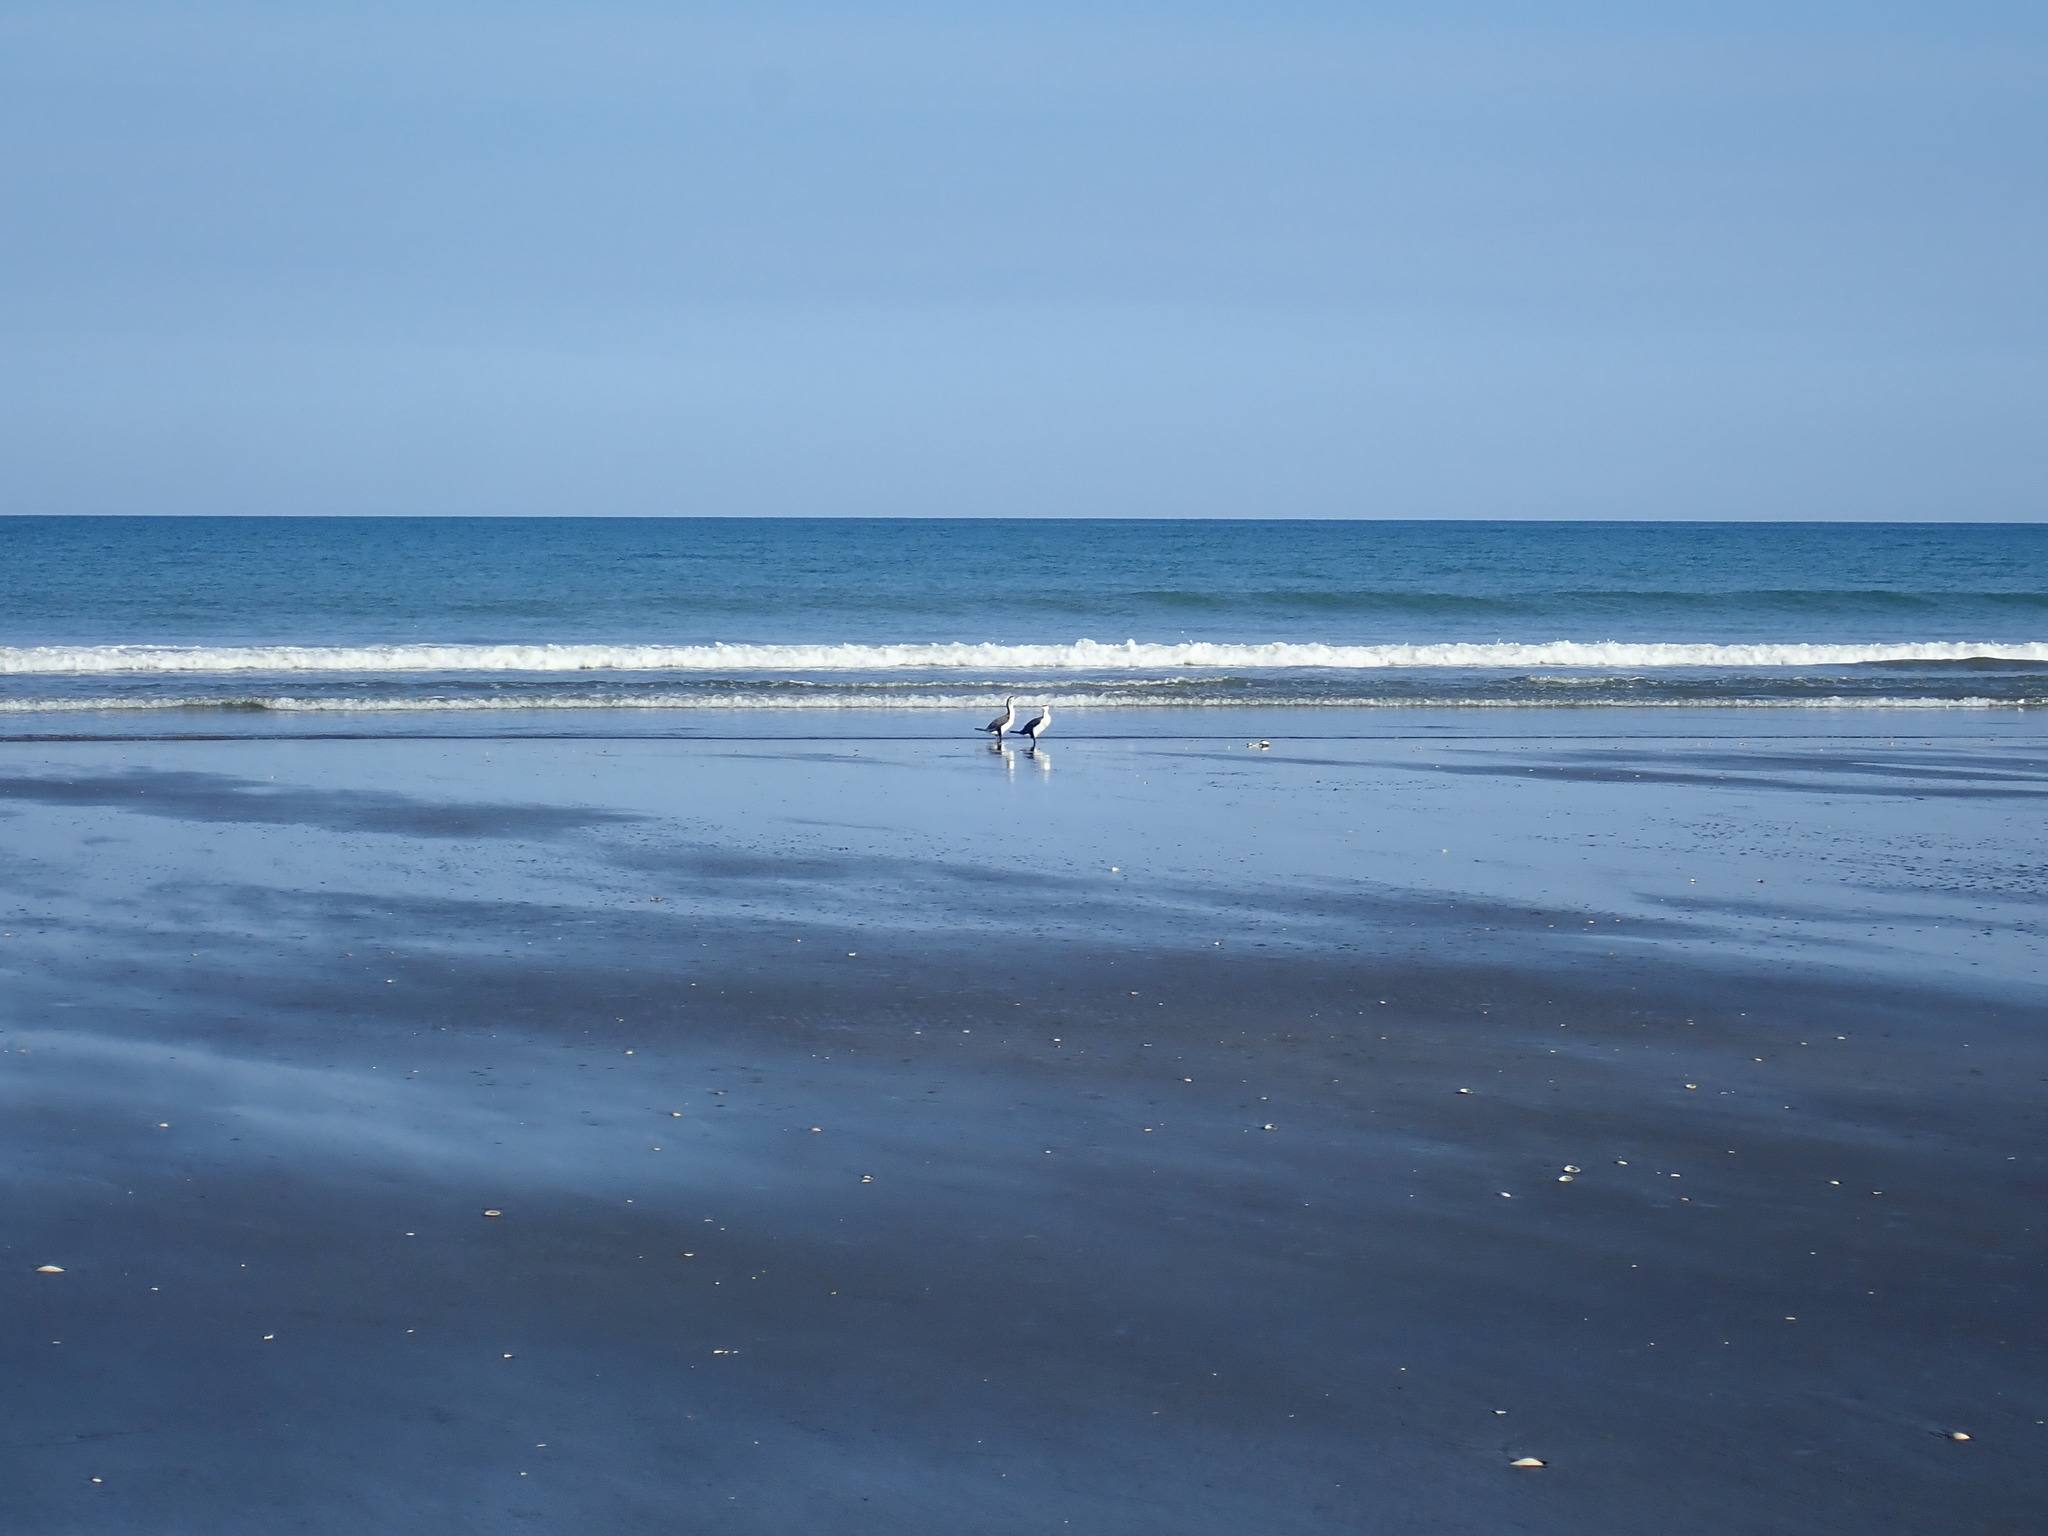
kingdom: Animalia
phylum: Chordata
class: Aves
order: Suliformes
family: Phalacrocoracidae
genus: Phalacrocorax
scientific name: Phalacrocorax varius
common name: Pied cormorant
